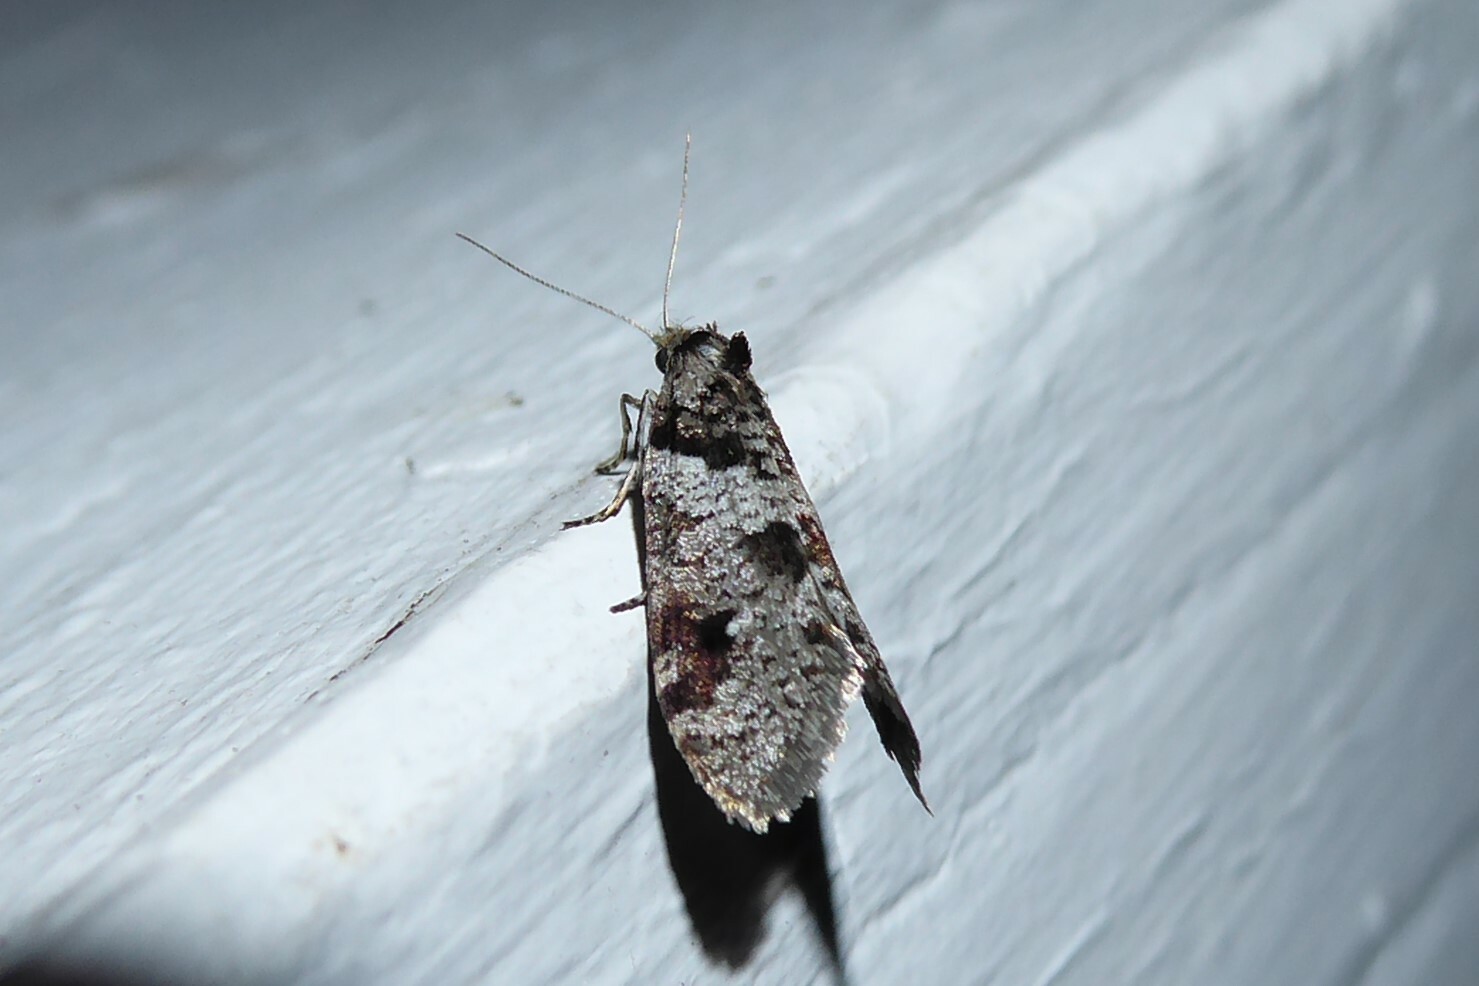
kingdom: Animalia
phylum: Arthropoda
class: Insecta
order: Lepidoptera
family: Psychidae
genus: Lepidoscia
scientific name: Lepidoscia heliochares
